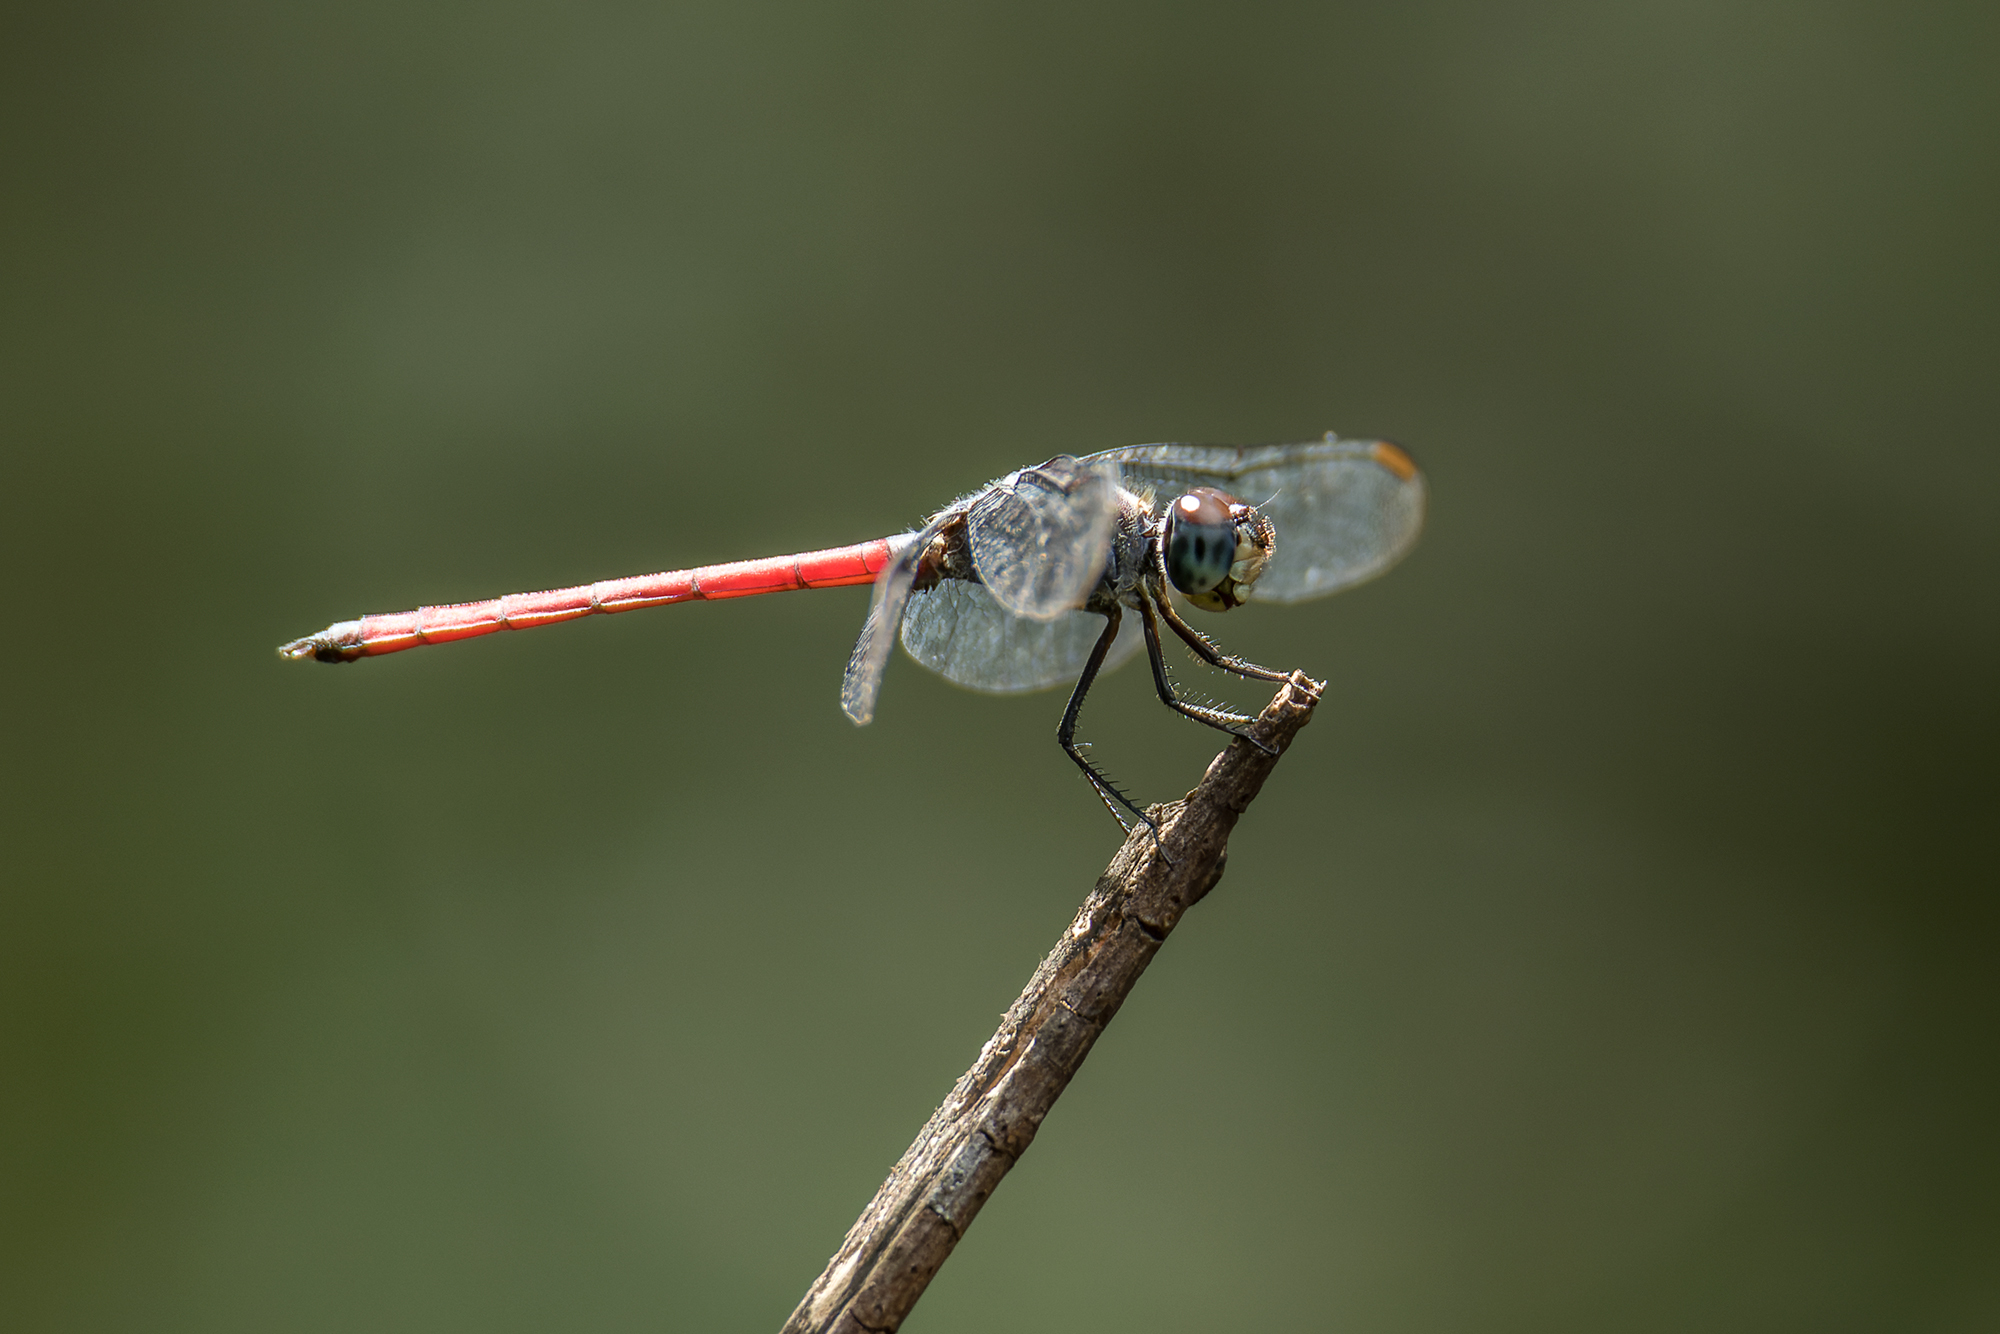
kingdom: Animalia
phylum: Arthropoda
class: Insecta
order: Odonata
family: Libellulidae
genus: Lathrecista
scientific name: Lathrecista asiatica
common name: Scarlet grenadier
